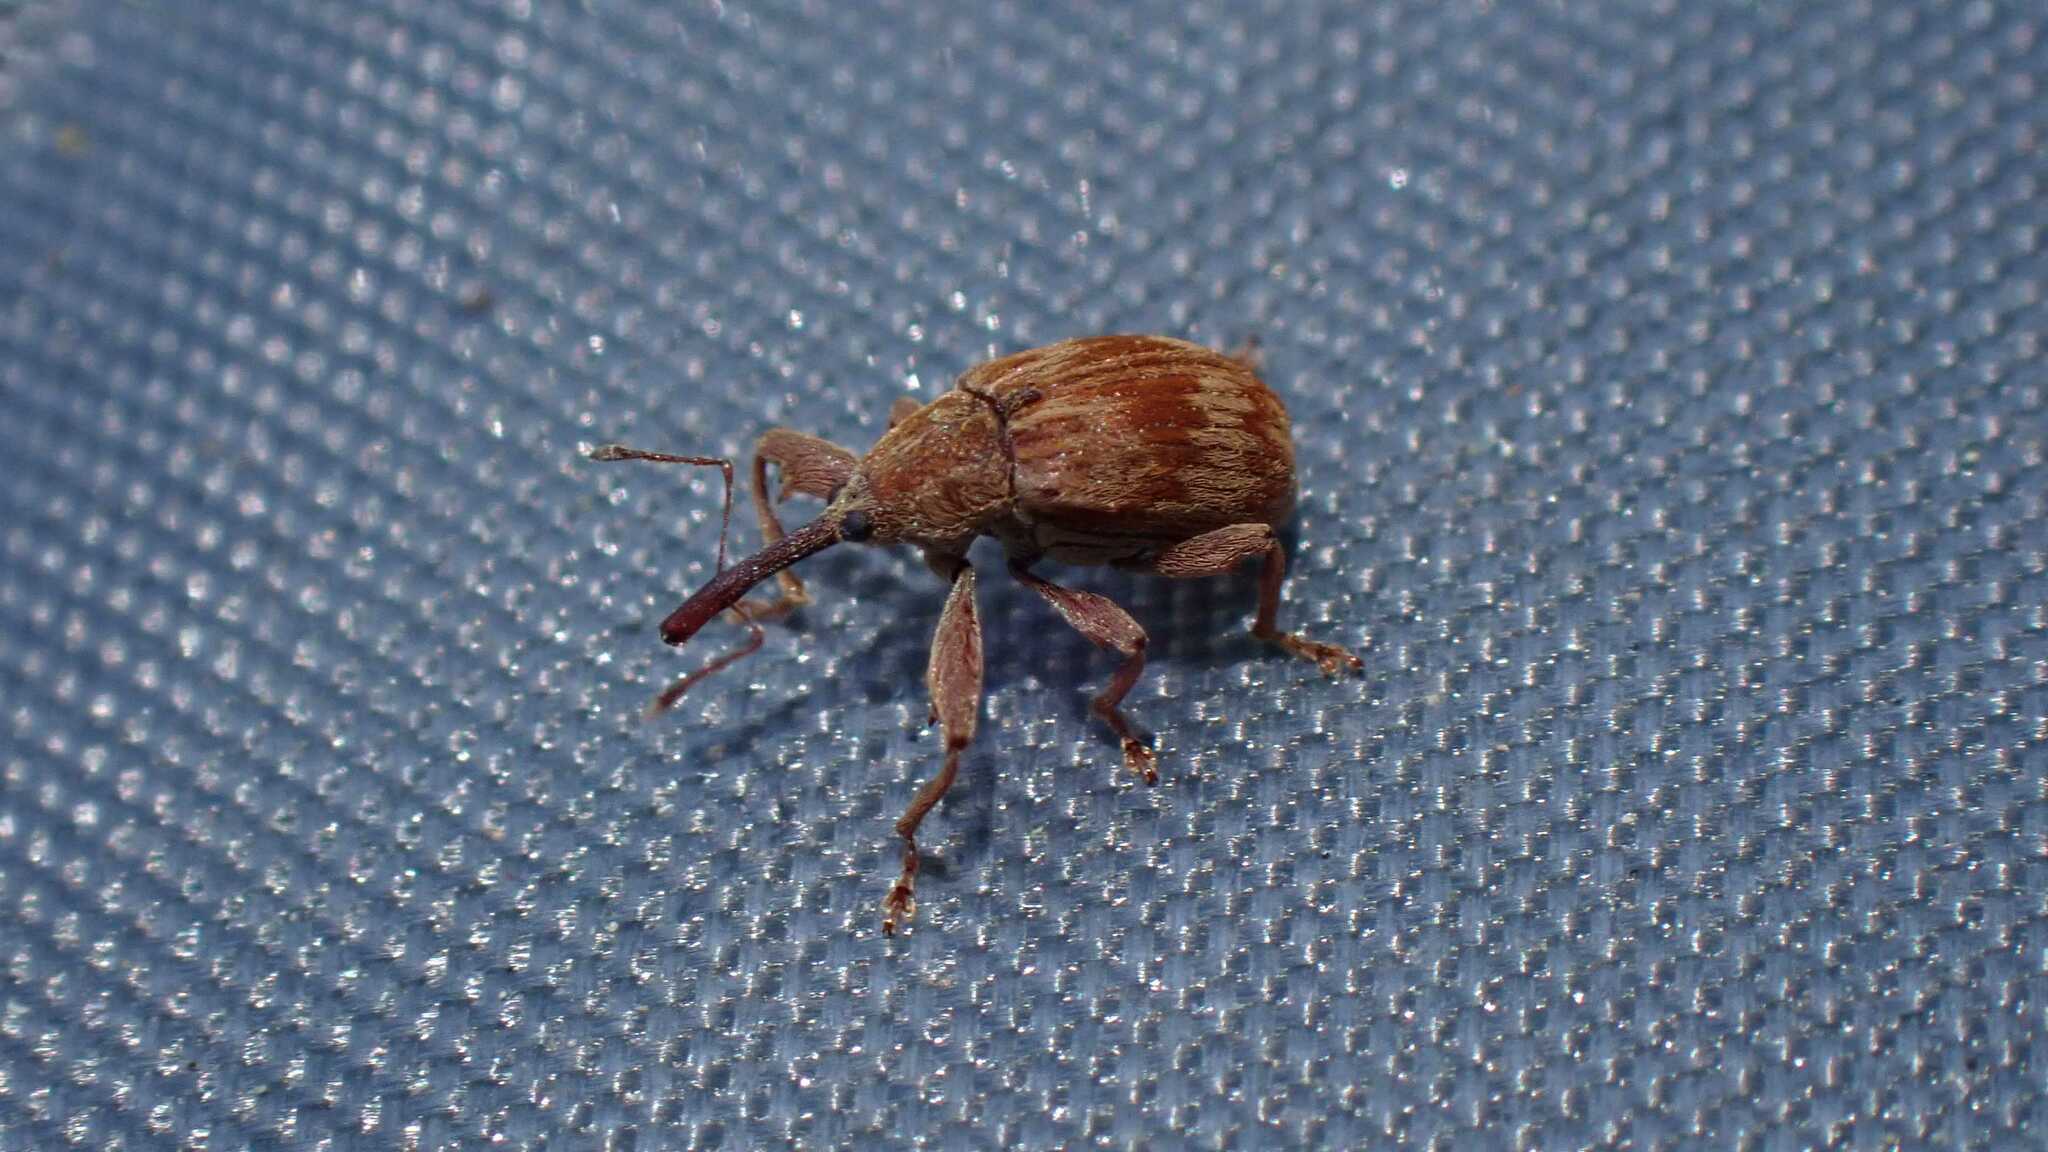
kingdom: Animalia
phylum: Arthropoda
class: Insecta
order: Coleoptera
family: Curculionidae
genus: Anthonomus
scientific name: Anthonomus rectirostris
